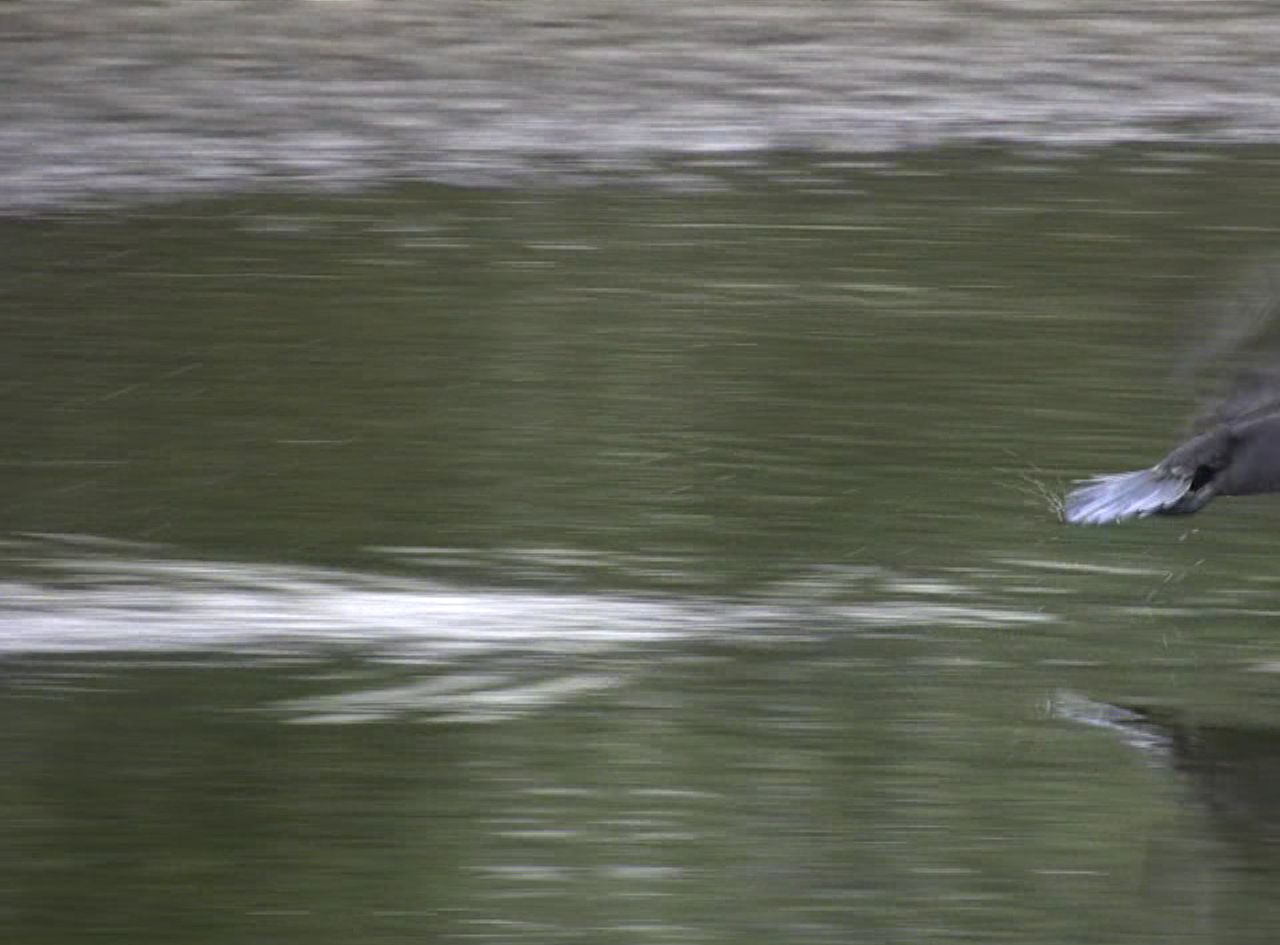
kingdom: Animalia
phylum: Chordata
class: Aves
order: Suliformes
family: Phalacrocoracidae
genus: Phalacrocorax
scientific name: Phalacrocorax sulcirostris
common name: Little black cormorant
